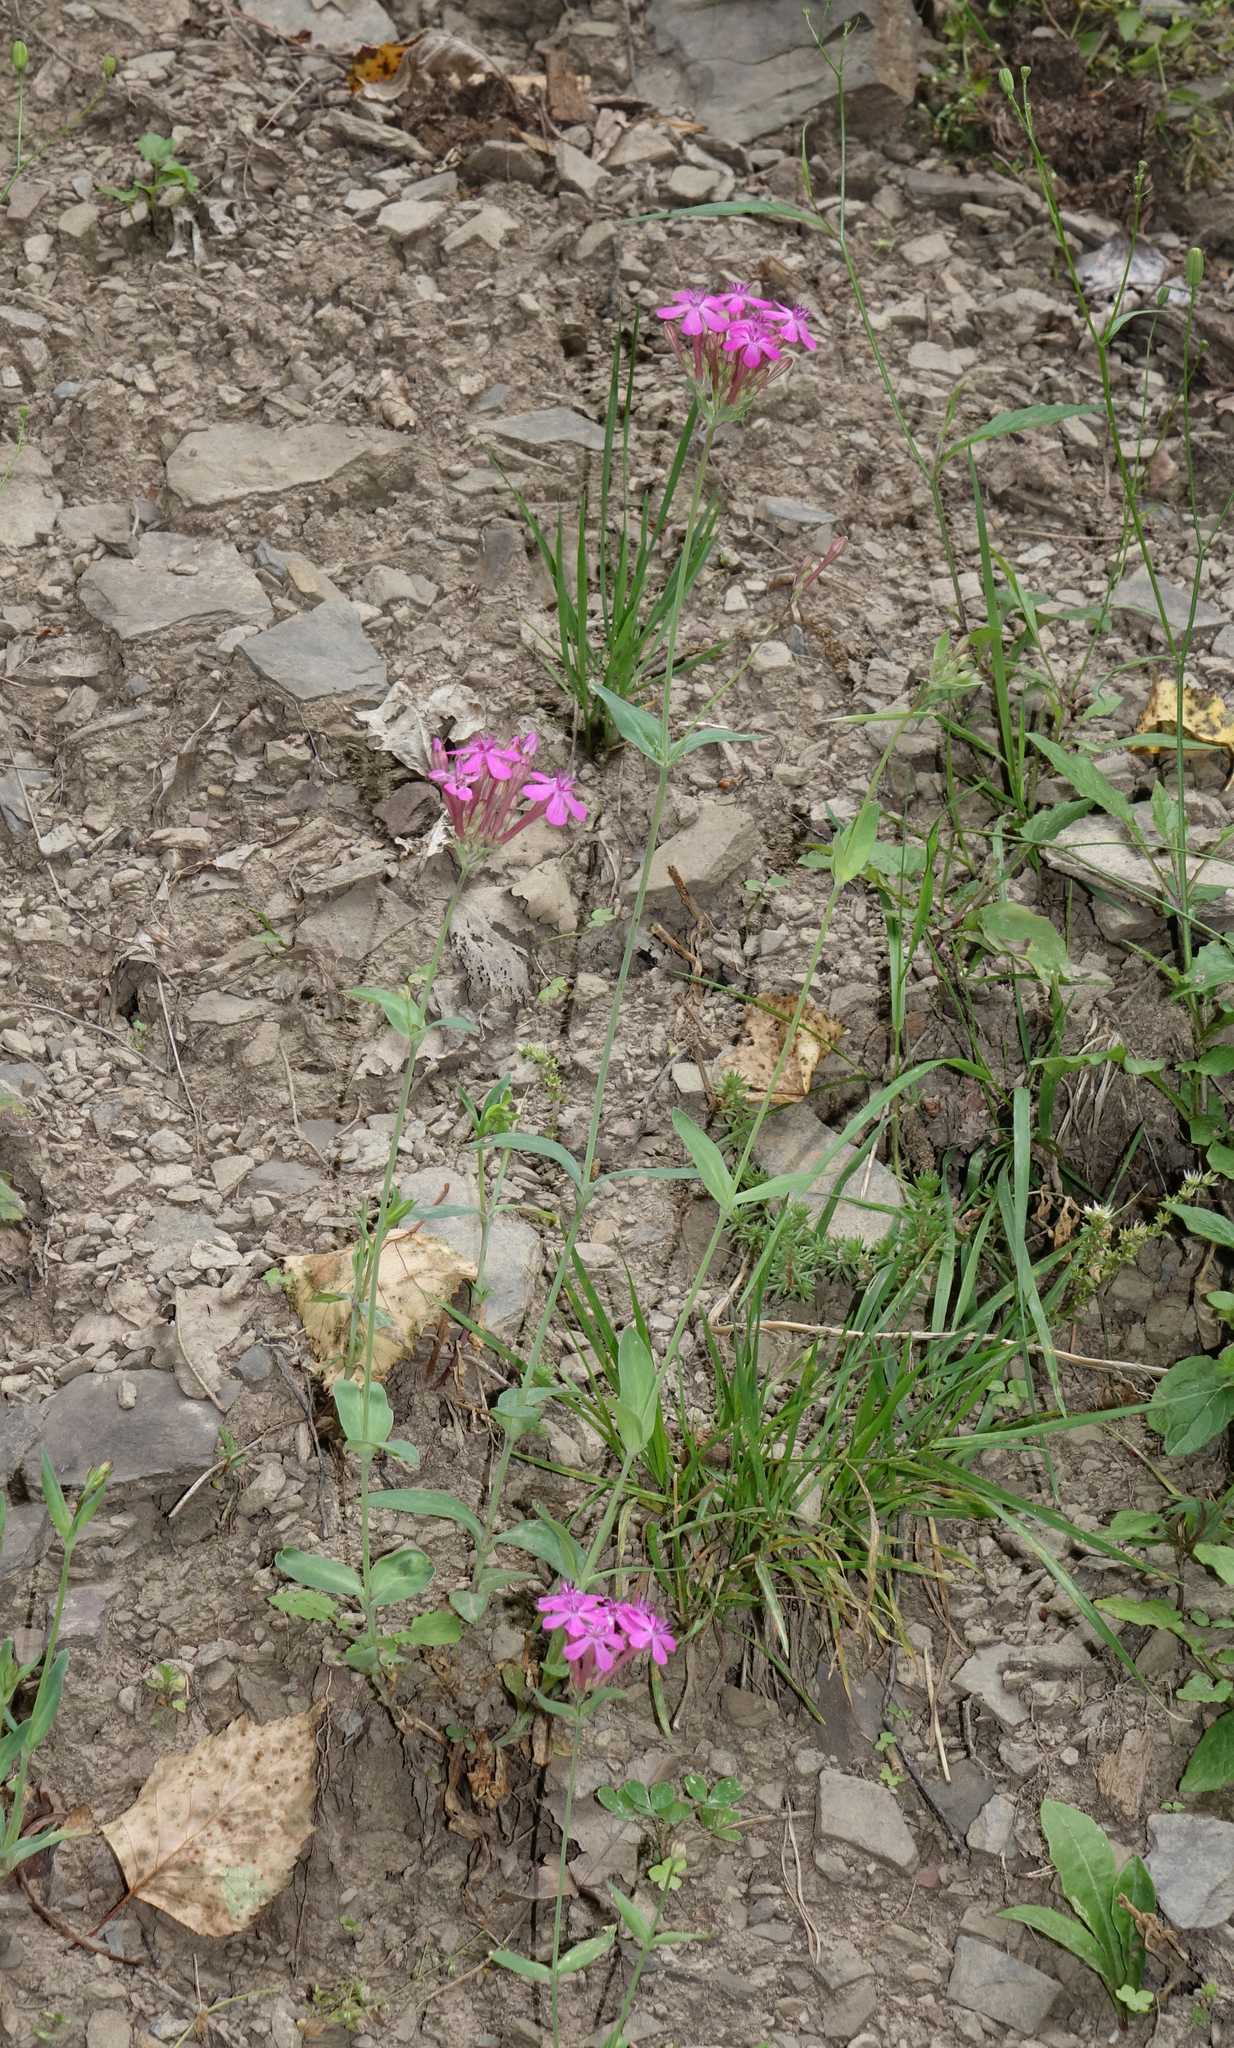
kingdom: Plantae
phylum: Tracheophyta
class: Magnoliopsida
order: Caryophyllales
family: Caryophyllaceae
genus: Atocion
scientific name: Atocion compactum
